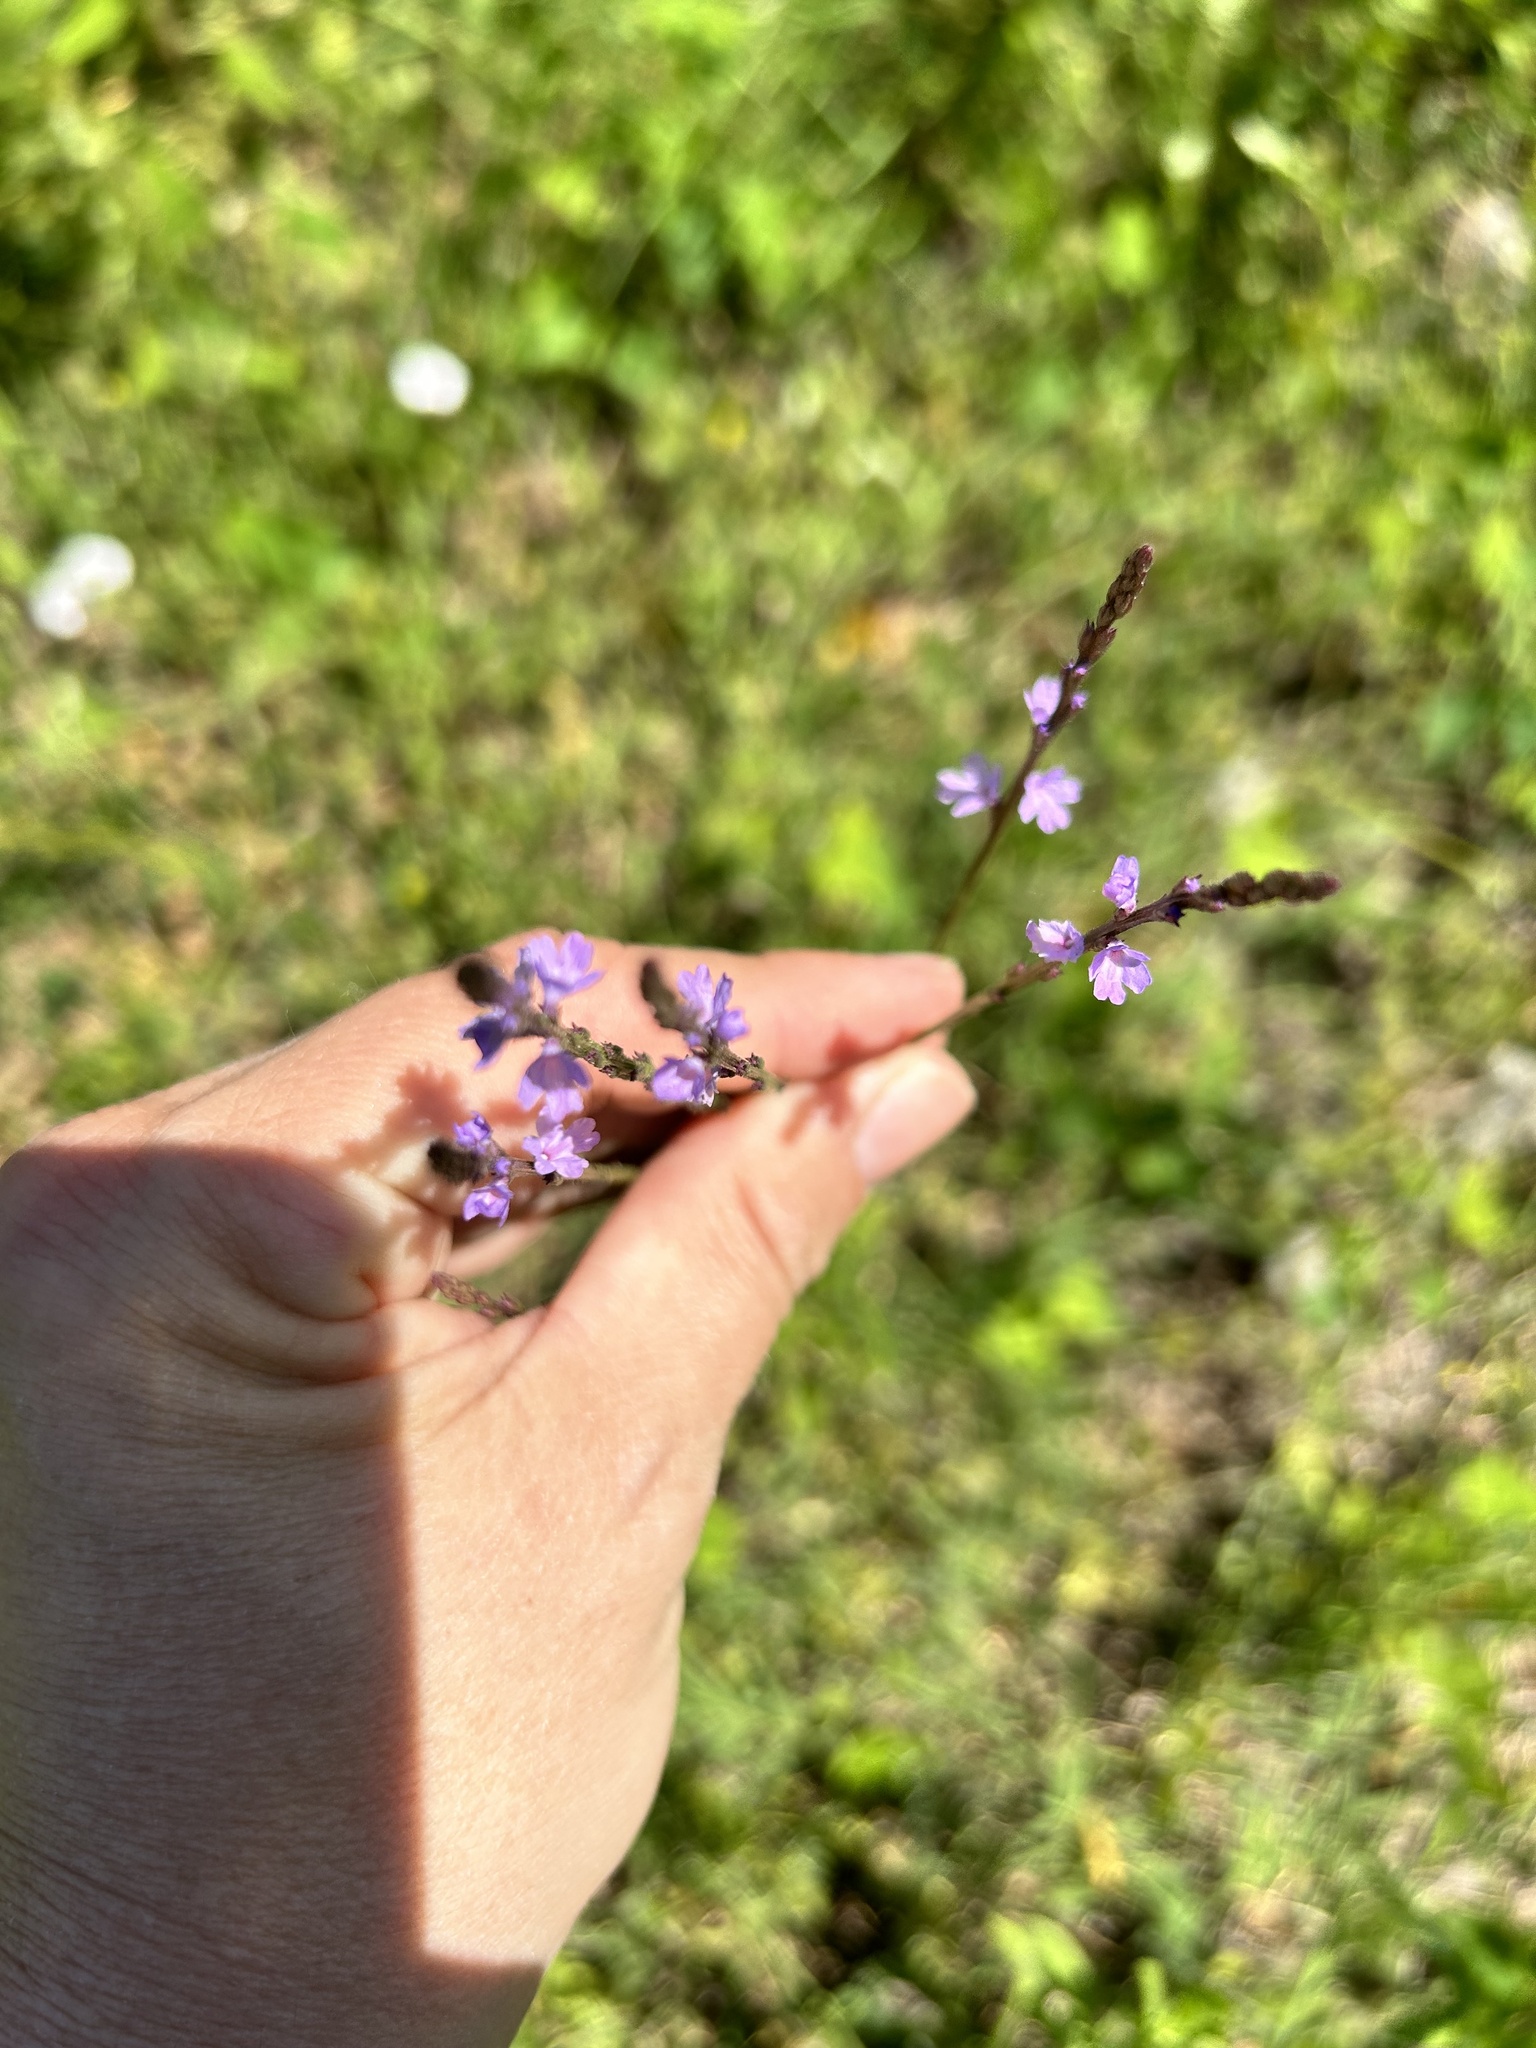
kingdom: Plantae
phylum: Tracheophyta
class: Magnoliopsida
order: Lamiales
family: Verbenaceae
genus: Verbena
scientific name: Verbena halei
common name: Texas vervain
